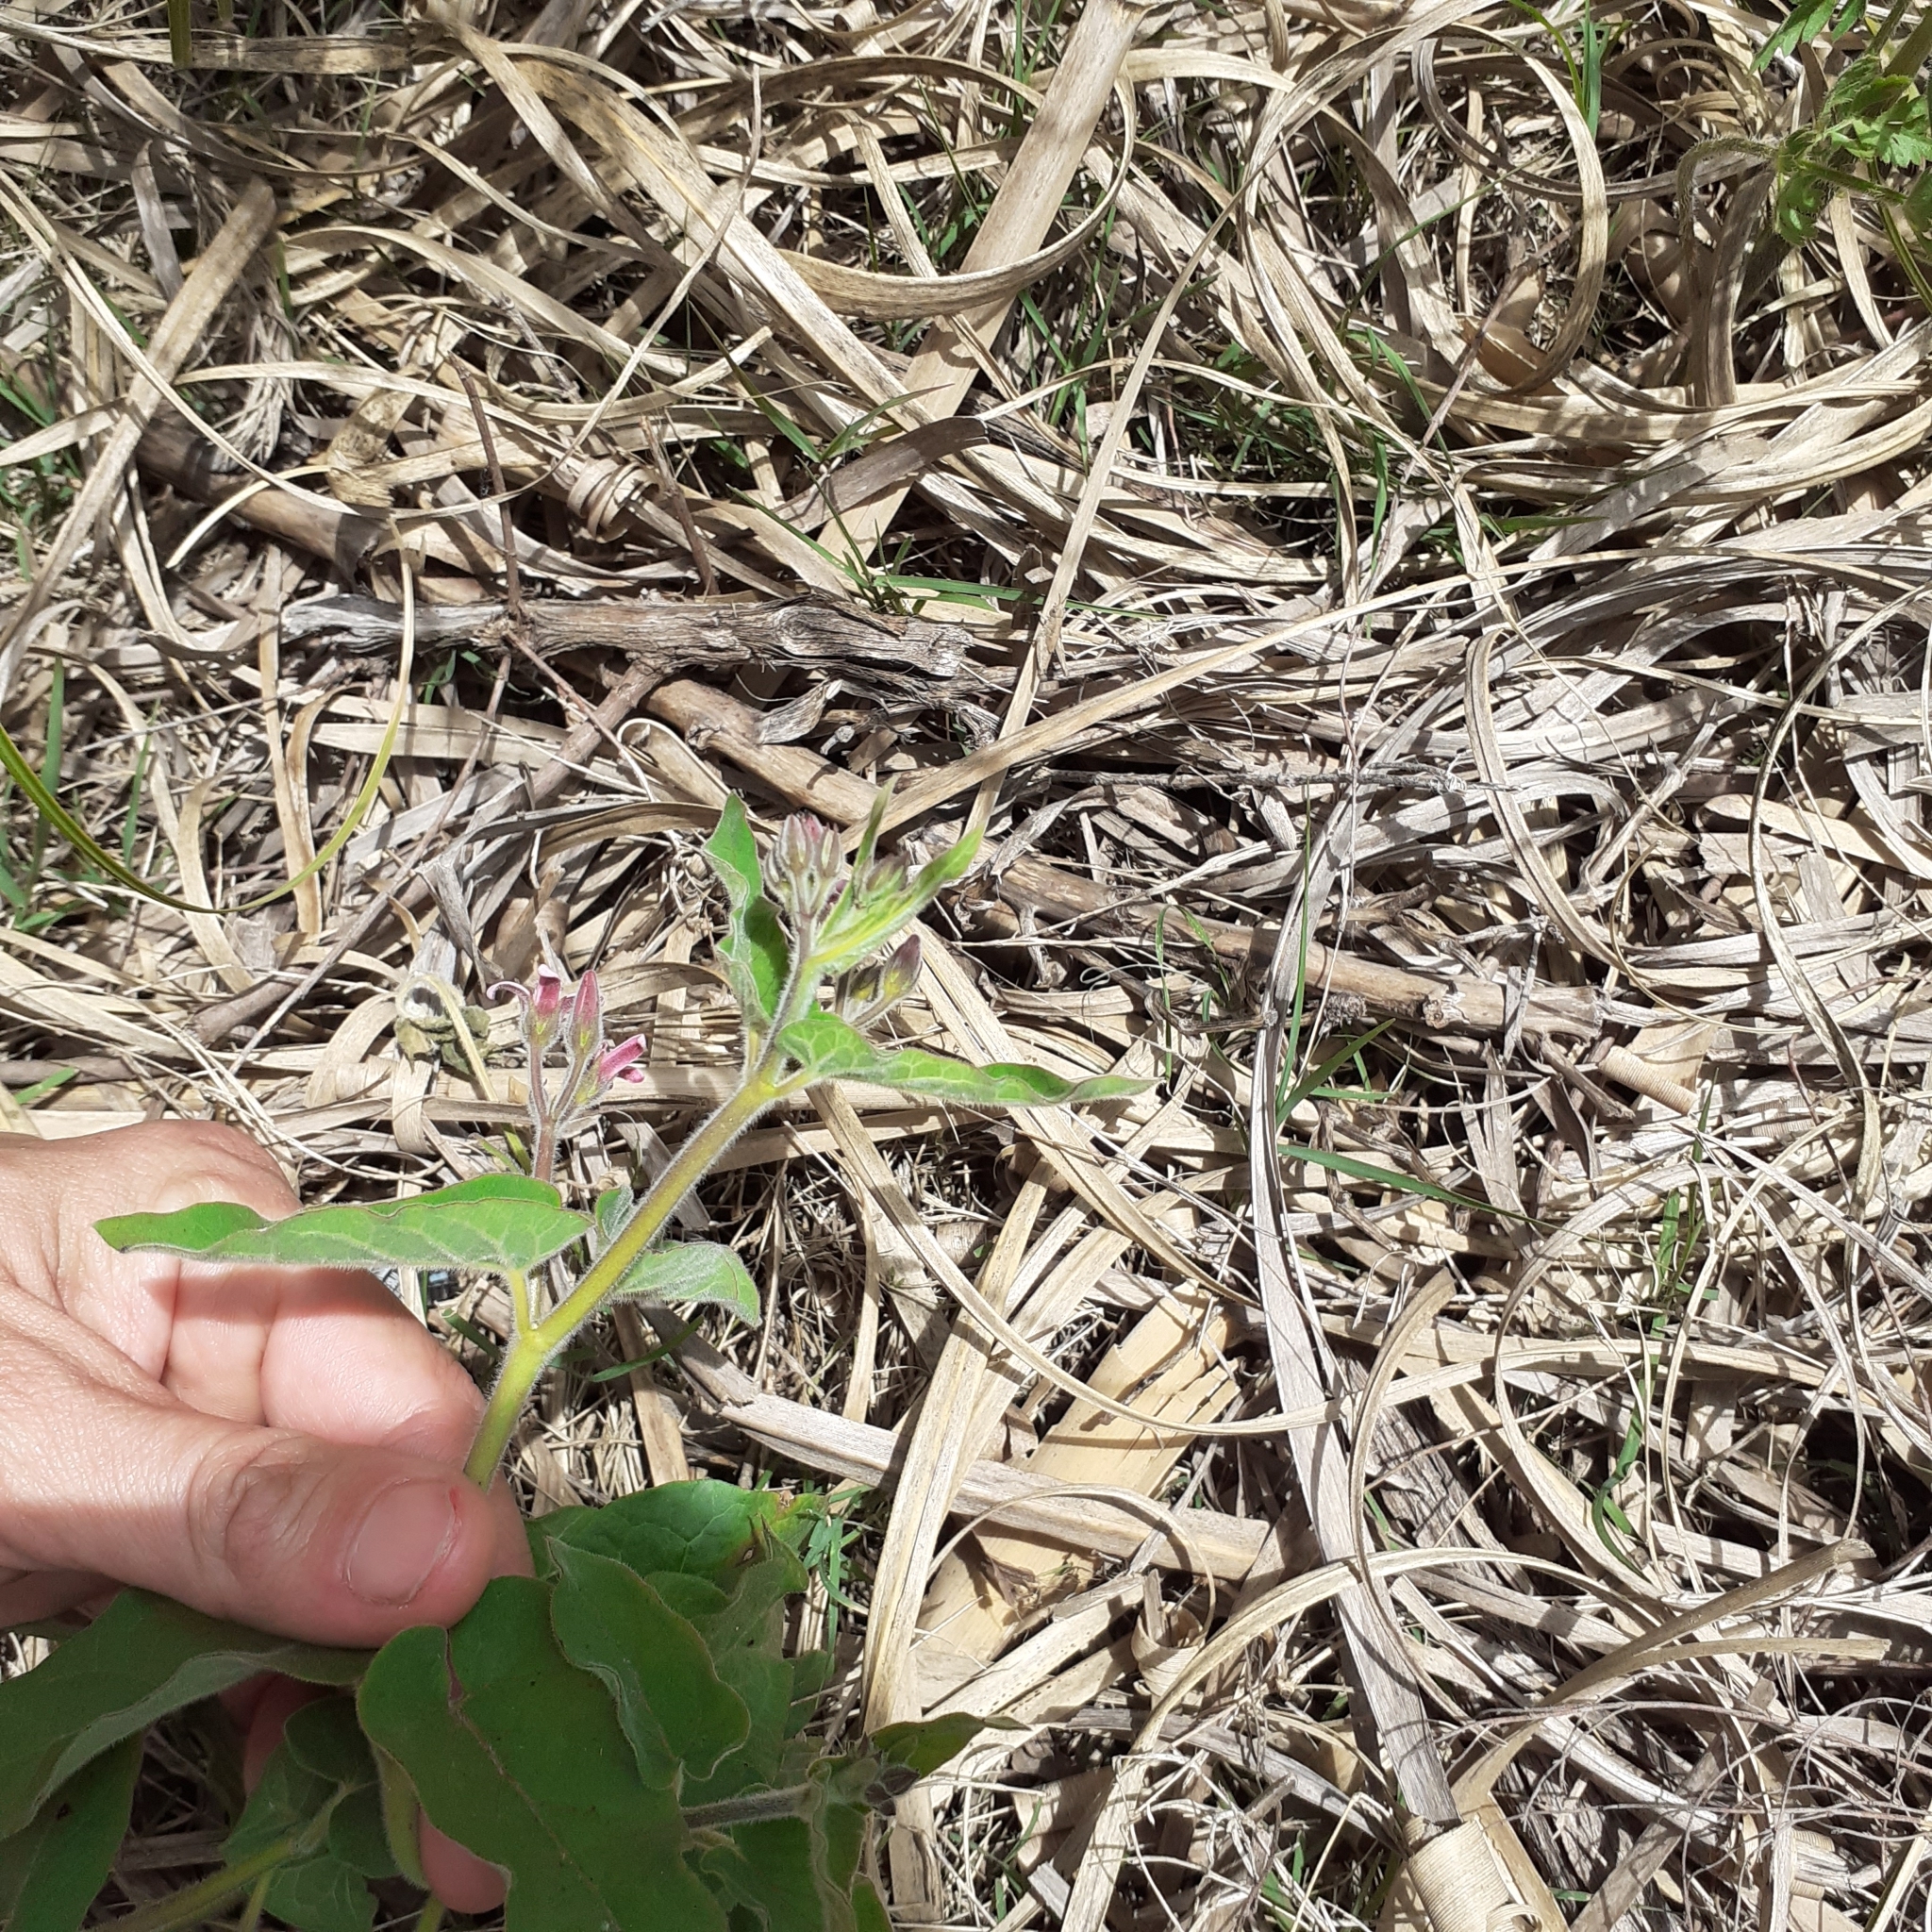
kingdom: Plantae
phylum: Tracheophyta
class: Magnoliopsida
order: Gentianales
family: Apocynaceae
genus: Oxypetalum
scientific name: Oxypetalum solanoides
